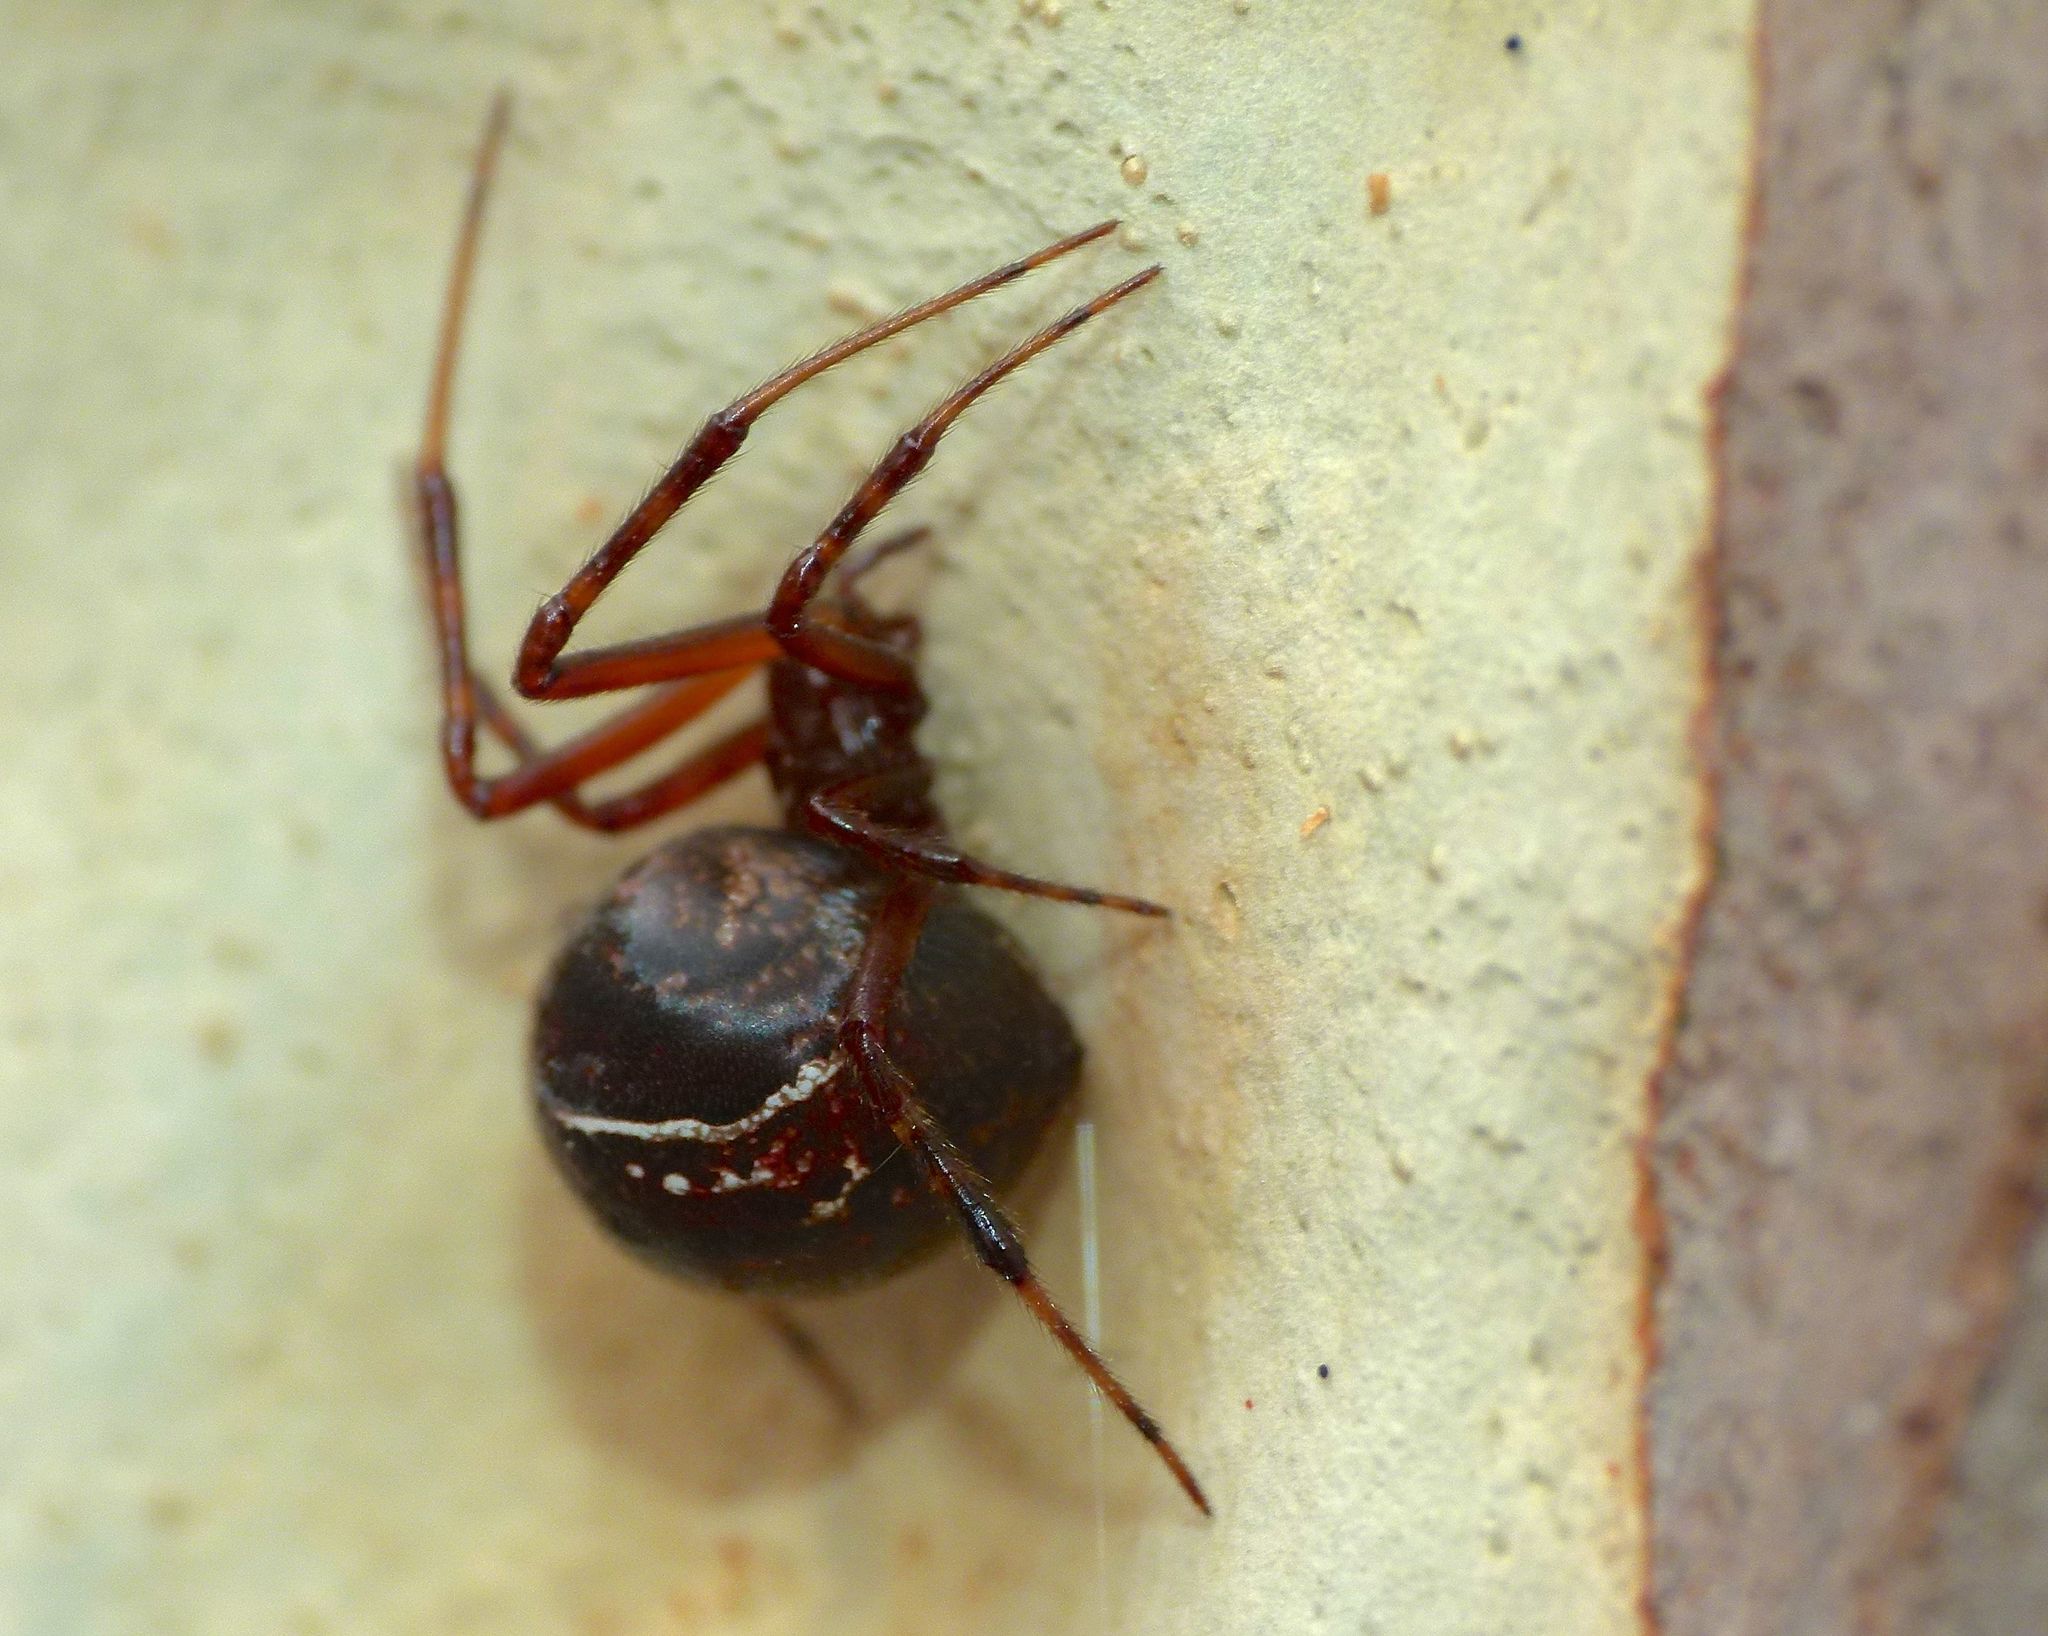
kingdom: Animalia
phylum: Arthropoda
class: Arachnida
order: Araneae
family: Theridiidae
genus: Parasteatoda
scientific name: Parasteatoda decorata
